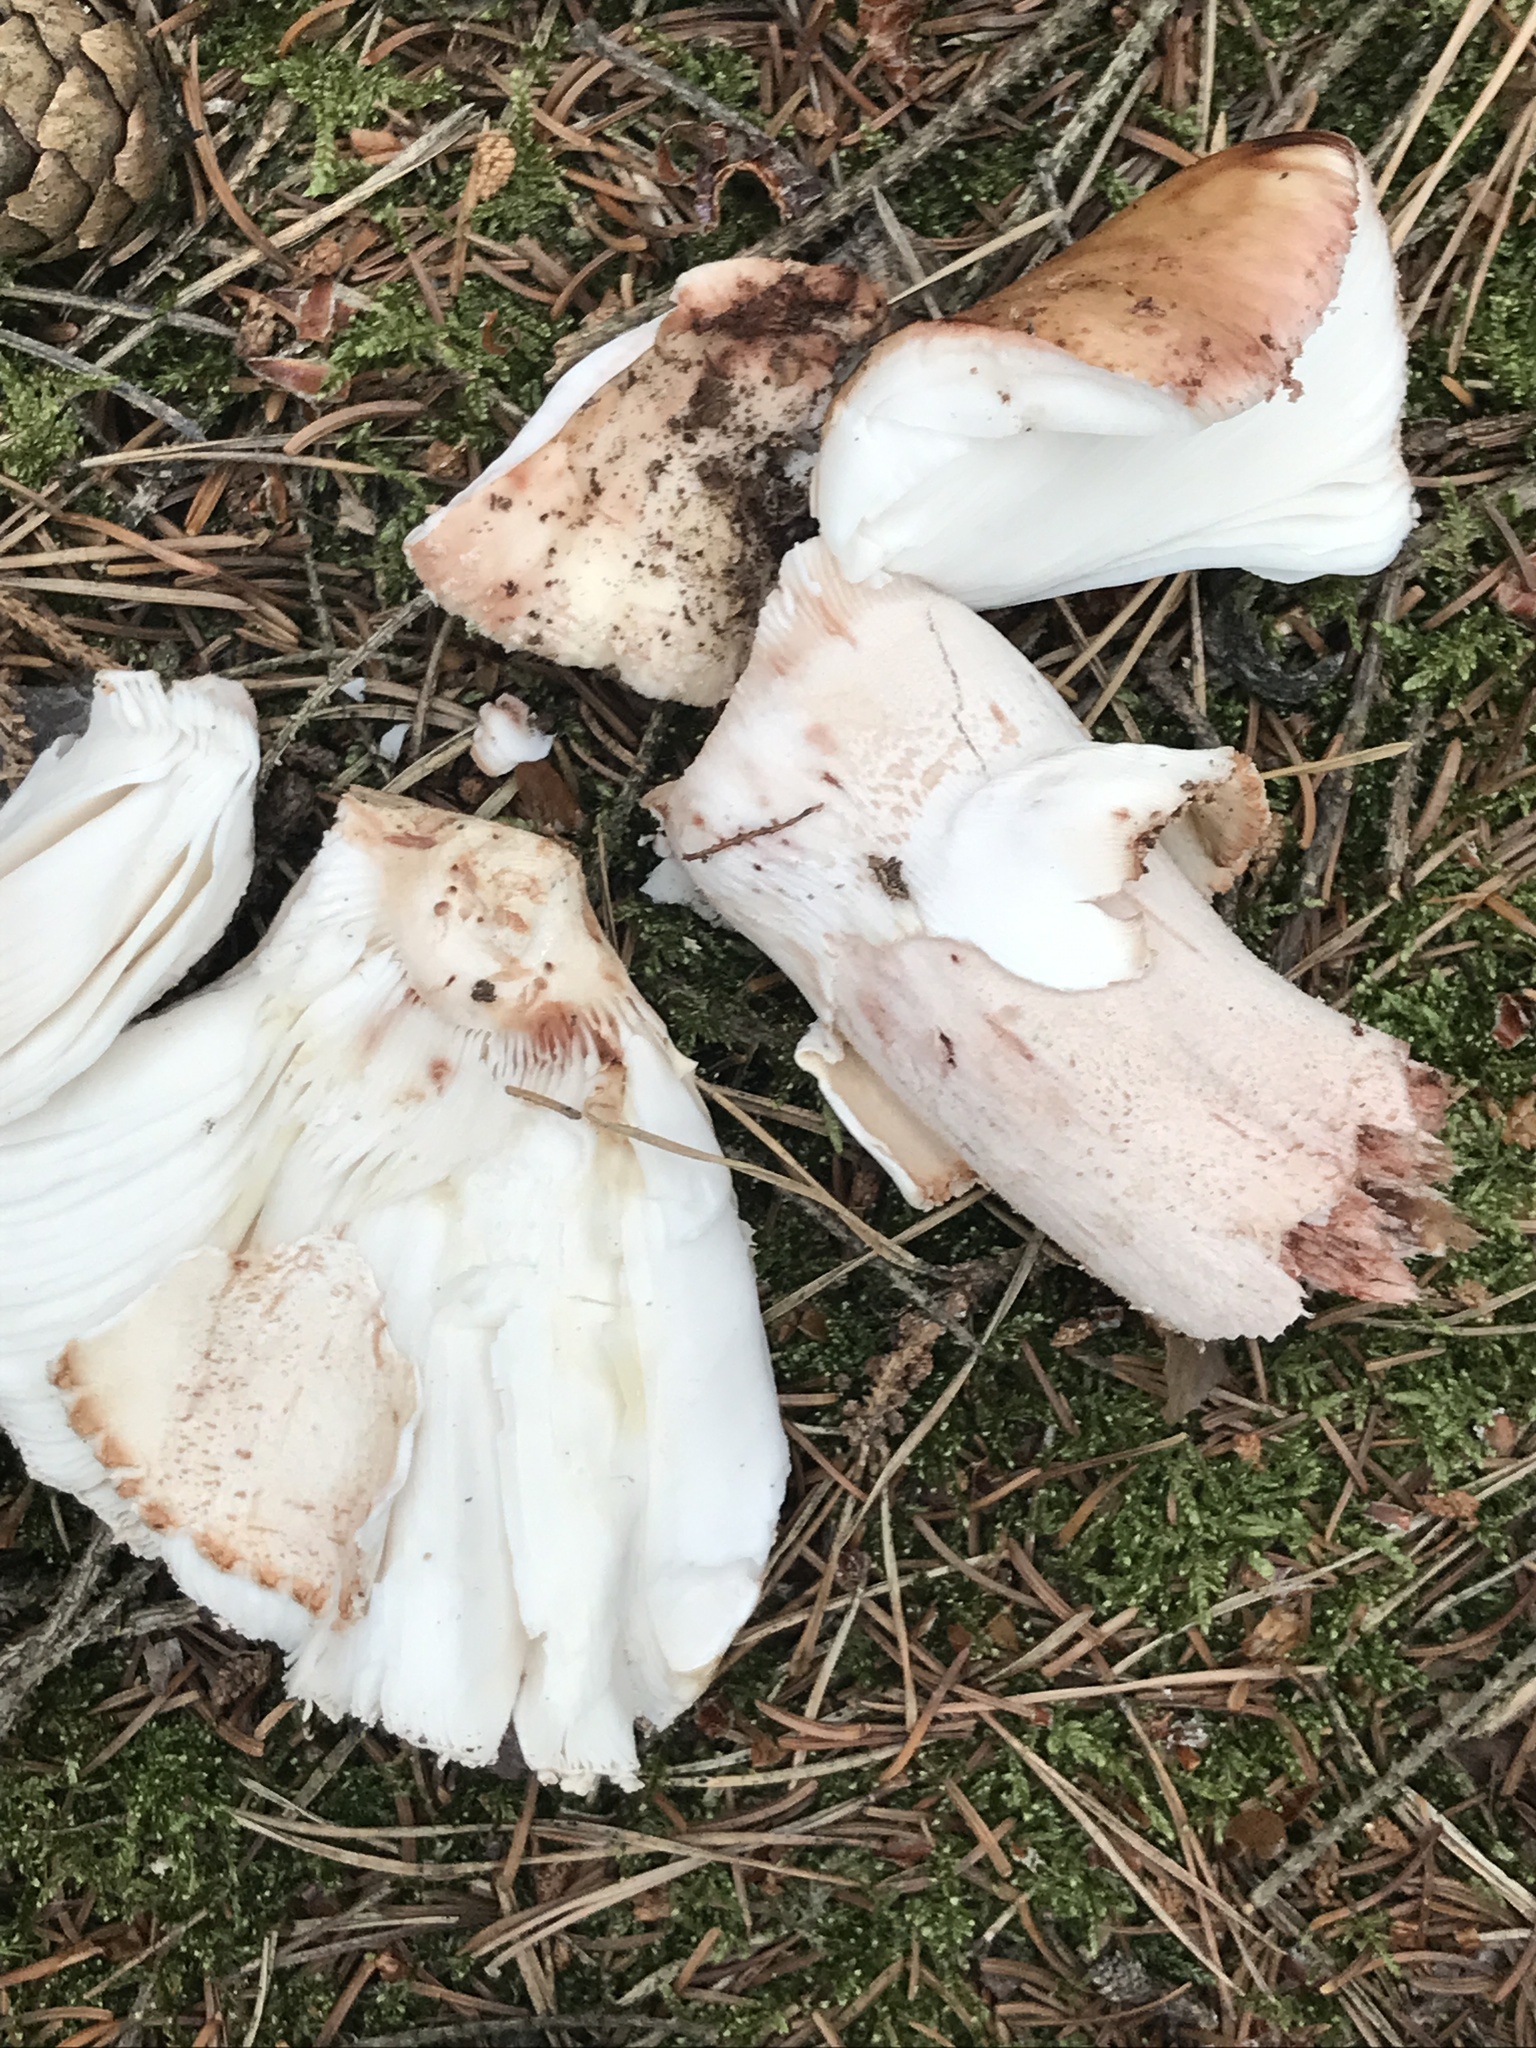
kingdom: Fungi
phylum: Basidiomycota
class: Agaricomycetes
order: Agaricales
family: Amanitaceae
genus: Amanita
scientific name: Amanita rubescens
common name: Blusher
